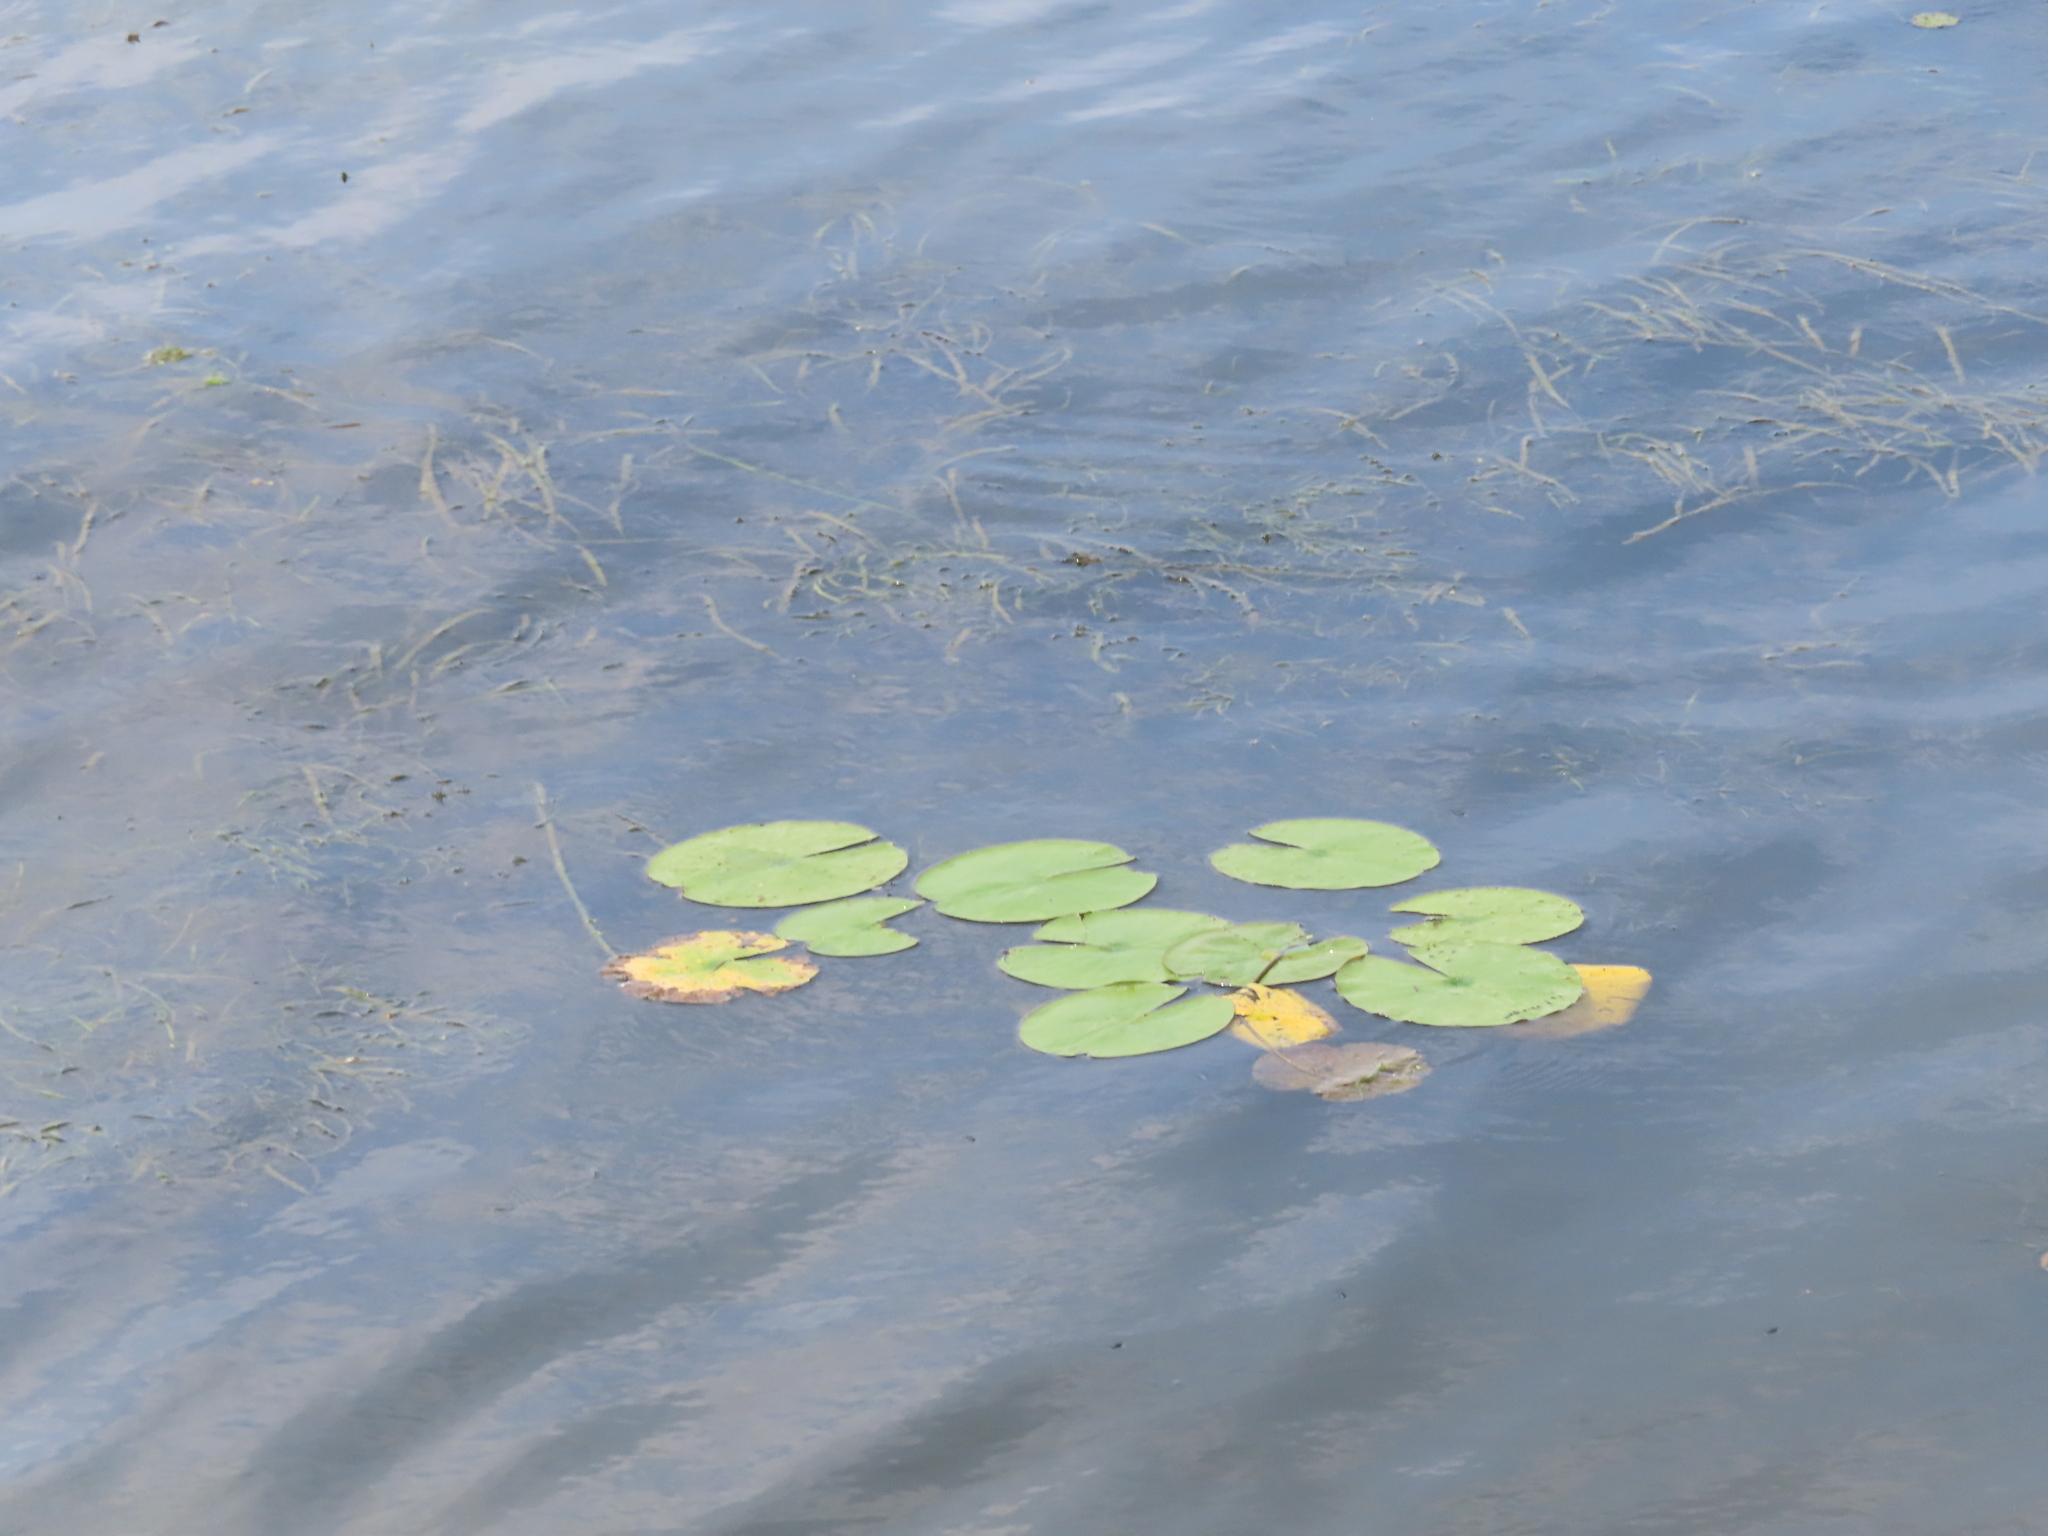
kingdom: Plantae
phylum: Tracheophyta
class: Magnoliopsida
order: Nymphaeales
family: Nymphaeaceae
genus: Nymphaea
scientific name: Nymphaea odorata
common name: Fragrant water-lily
